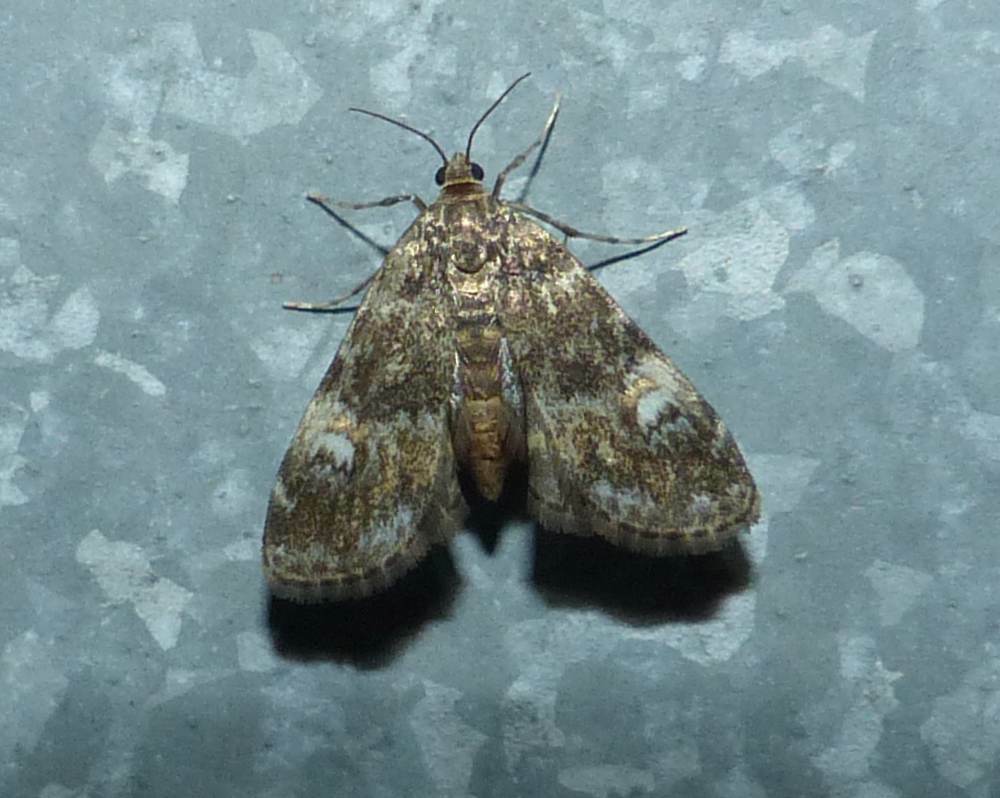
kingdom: Animalia
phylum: Arthropoda
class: Insecta
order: Lepidoptera
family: Crambidae
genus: Elophila
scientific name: Elophila obliteralis
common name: Waterlily leafcutter moth
